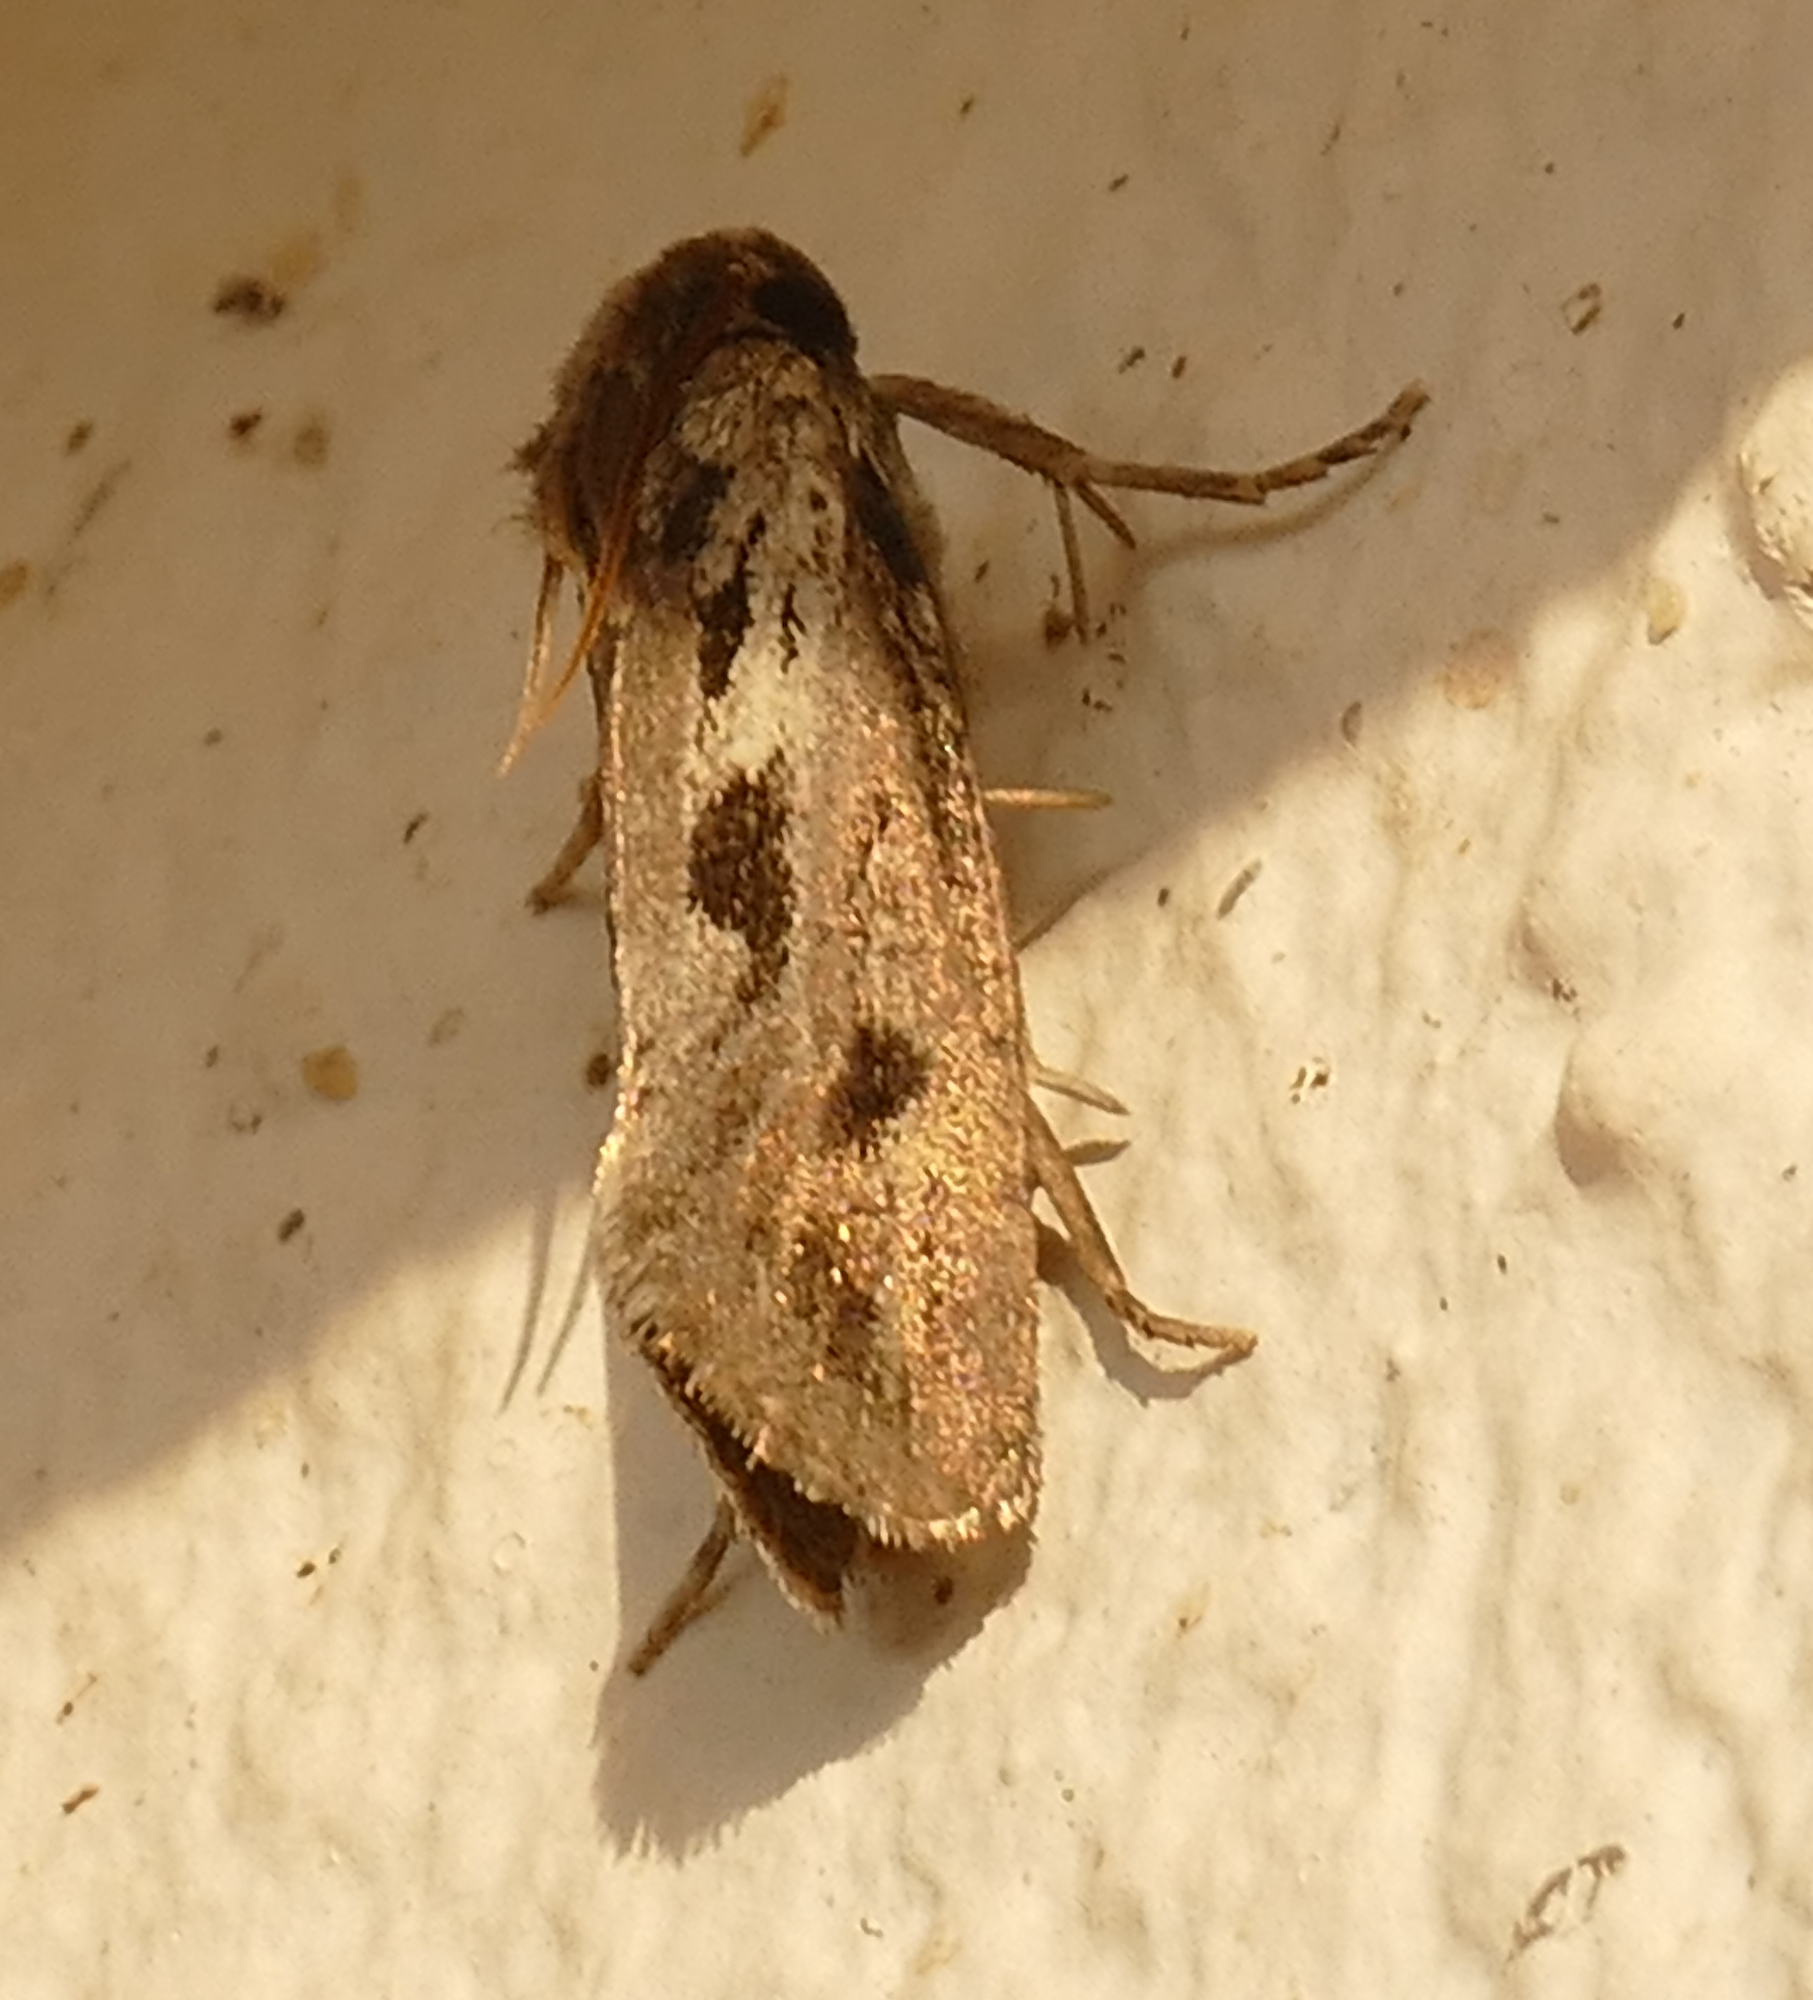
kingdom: Animalia
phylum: Arthropoda
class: Insecta
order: Lepidoptera
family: Tineidae
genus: Acrolophus
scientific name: Acrolophus popeanella
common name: Clemens' grass tubeworm moth
